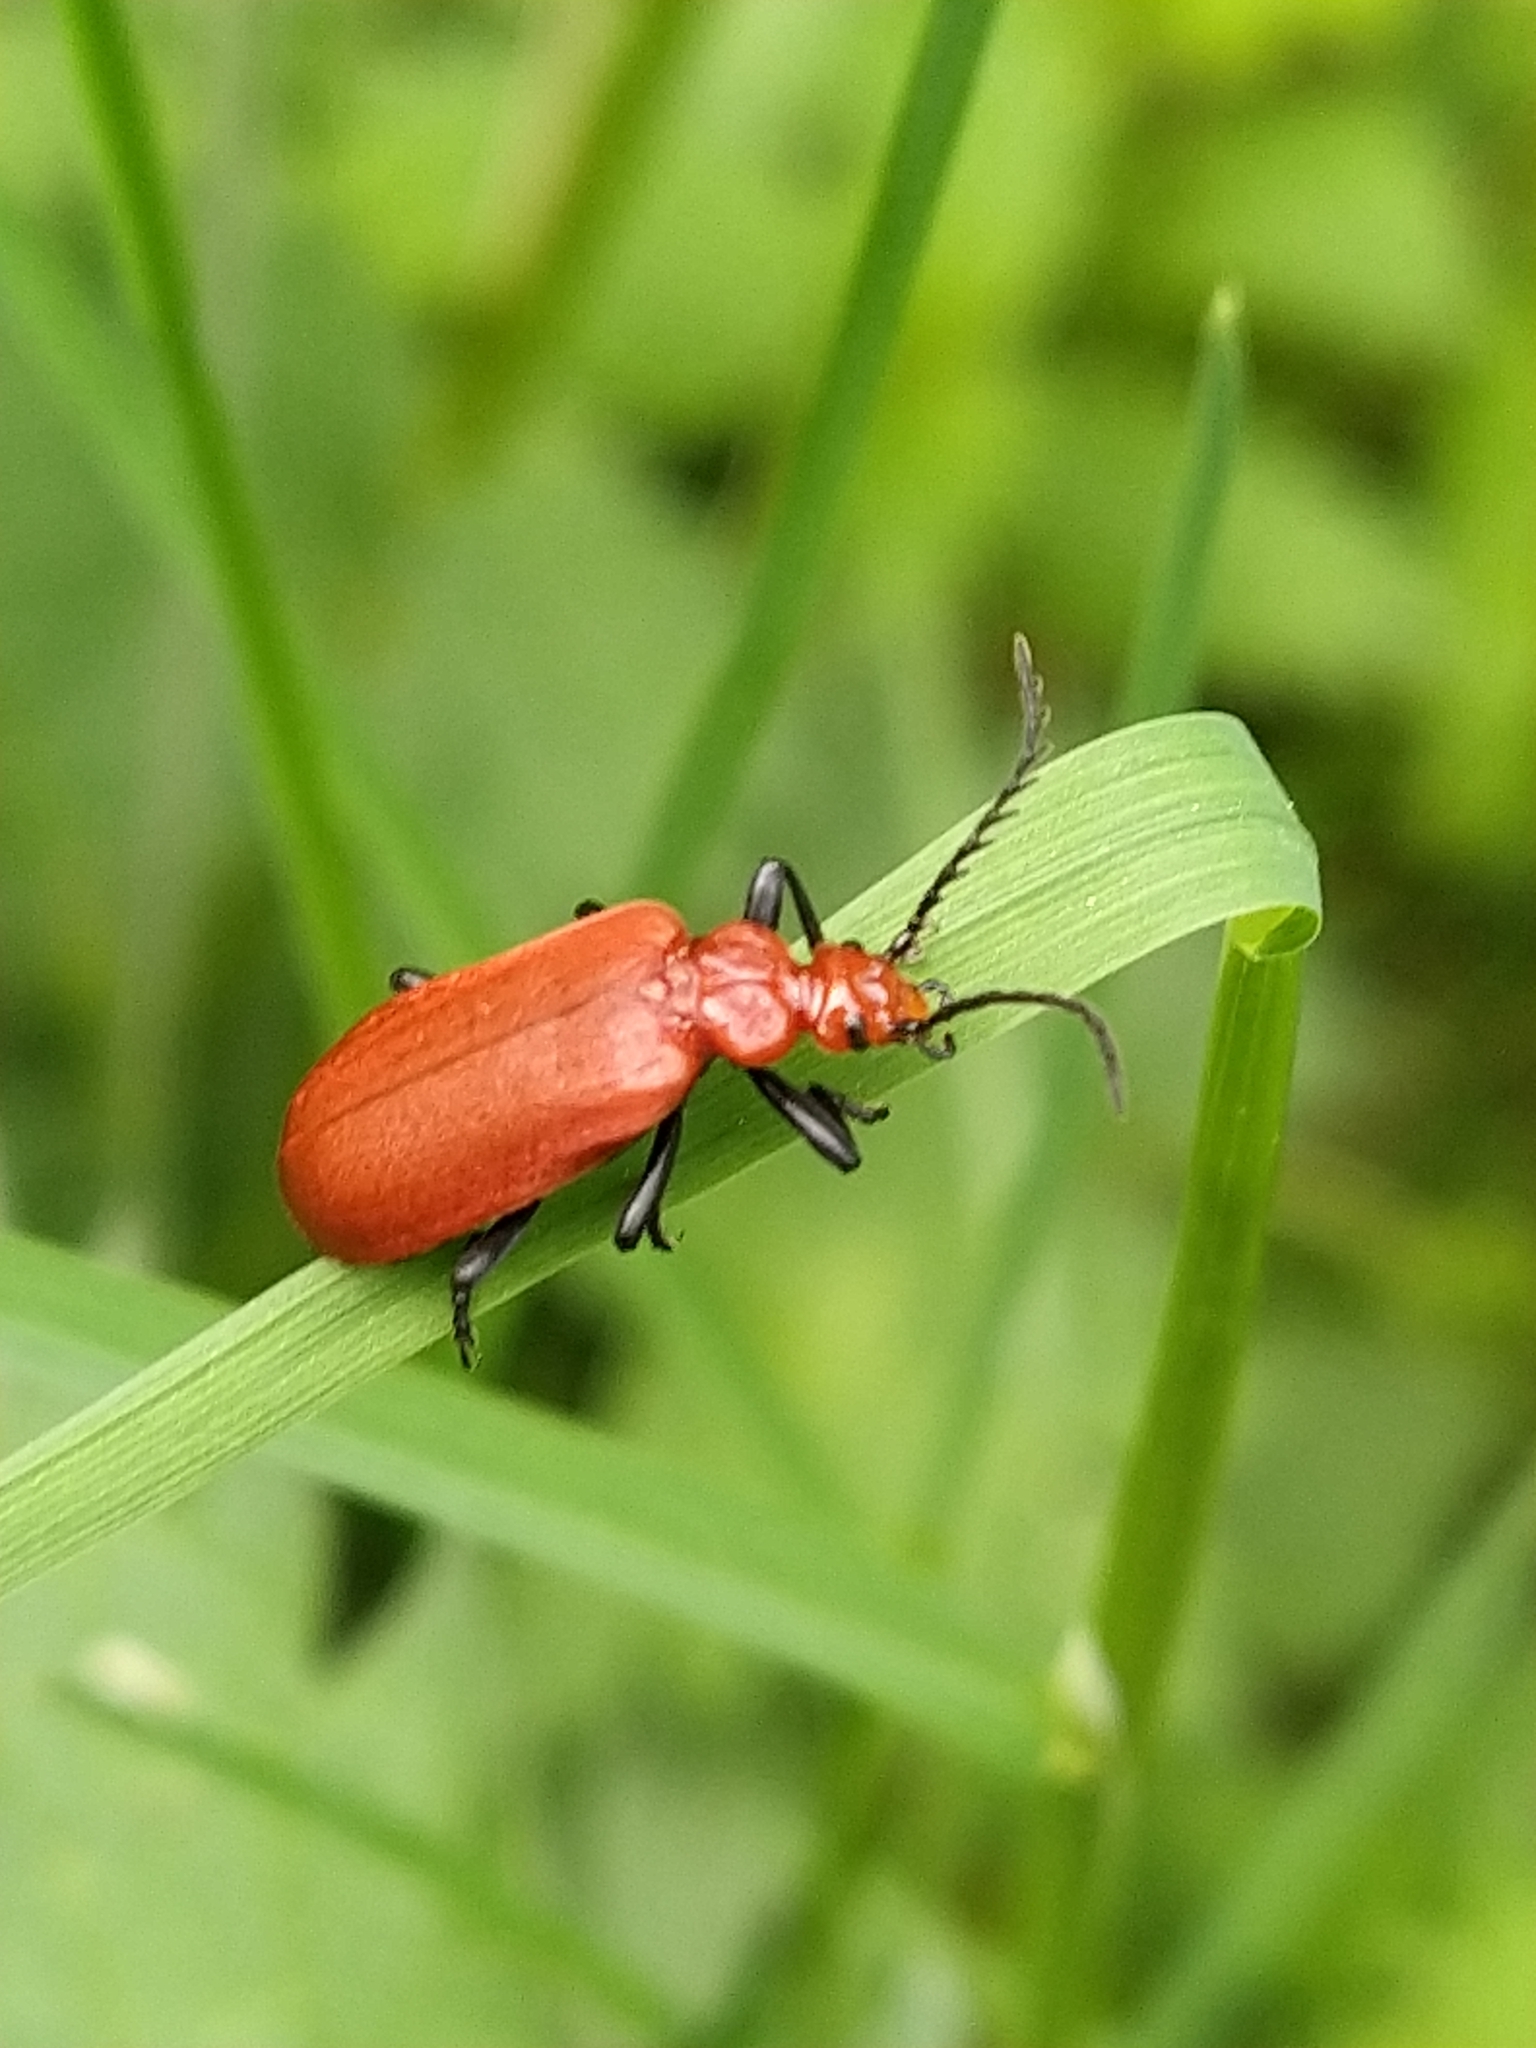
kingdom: Animalia
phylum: Arthropoda
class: Insecta
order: Coleoptera
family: Pyrochroidae
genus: Pyrochroa
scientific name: Pyrochroa serraticornis
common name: Red-headed cardinal beetle
